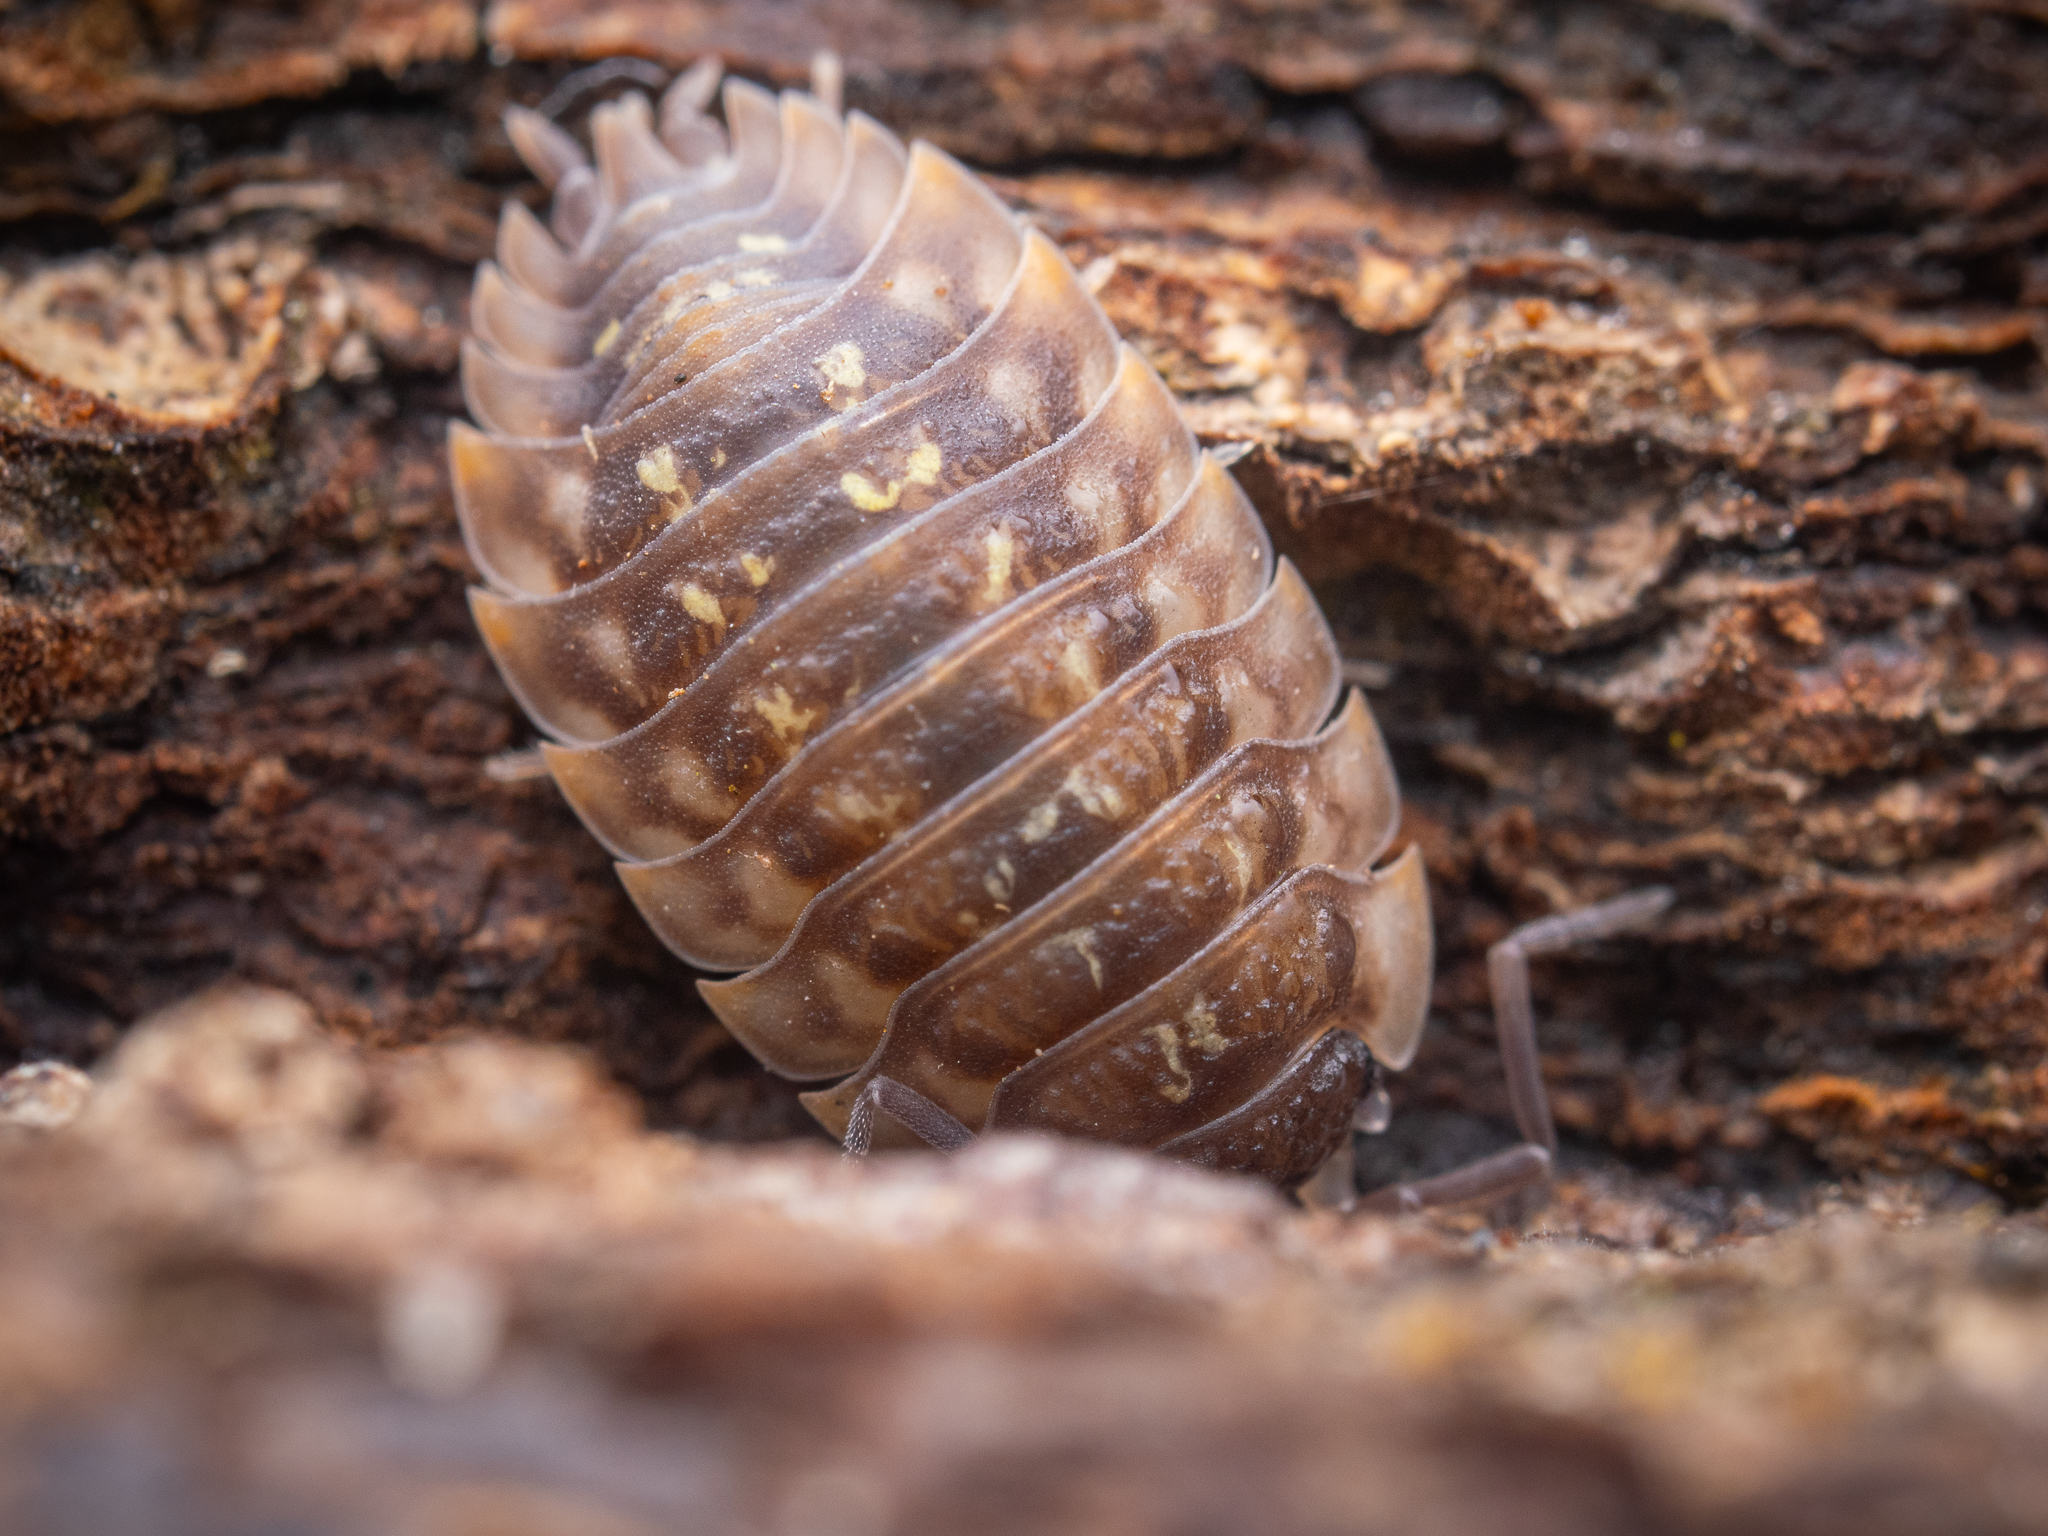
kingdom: Animalia
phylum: Arthropoda
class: Malacostraca
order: Isopoda
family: Oniscidae
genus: Oniscus
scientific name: Oniscus asellus
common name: Common shiny woodlouse
